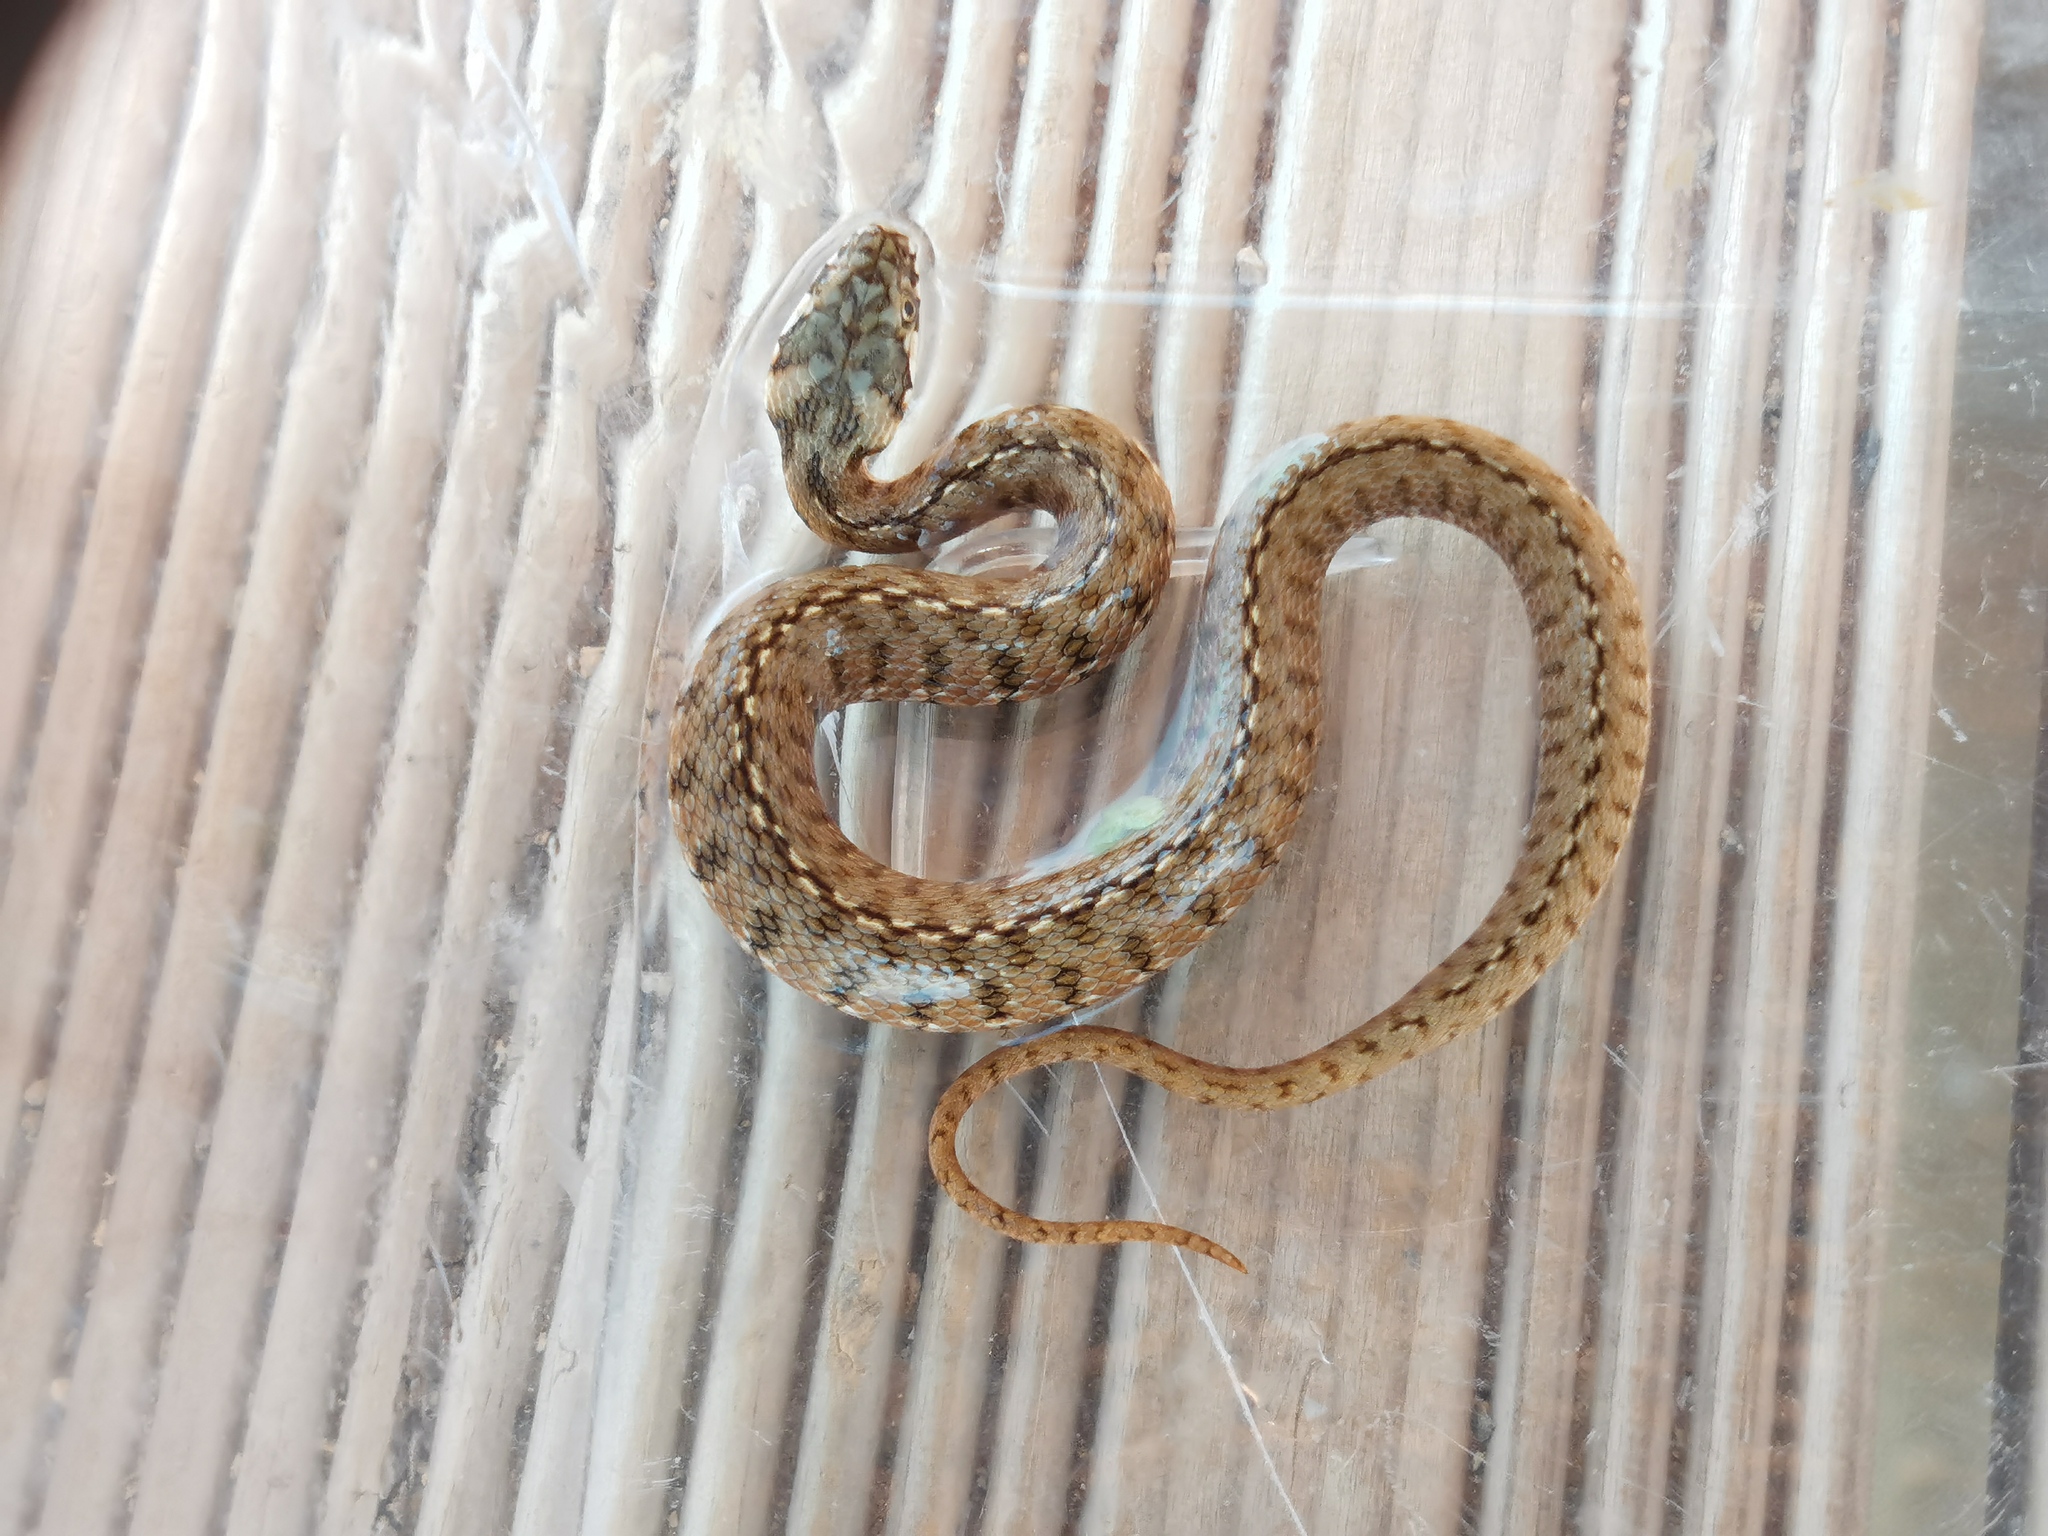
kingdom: Animalia
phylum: Chordata
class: Squamata
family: Colubridae
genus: Natrix
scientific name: Natrix maura
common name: Viperine water snake
